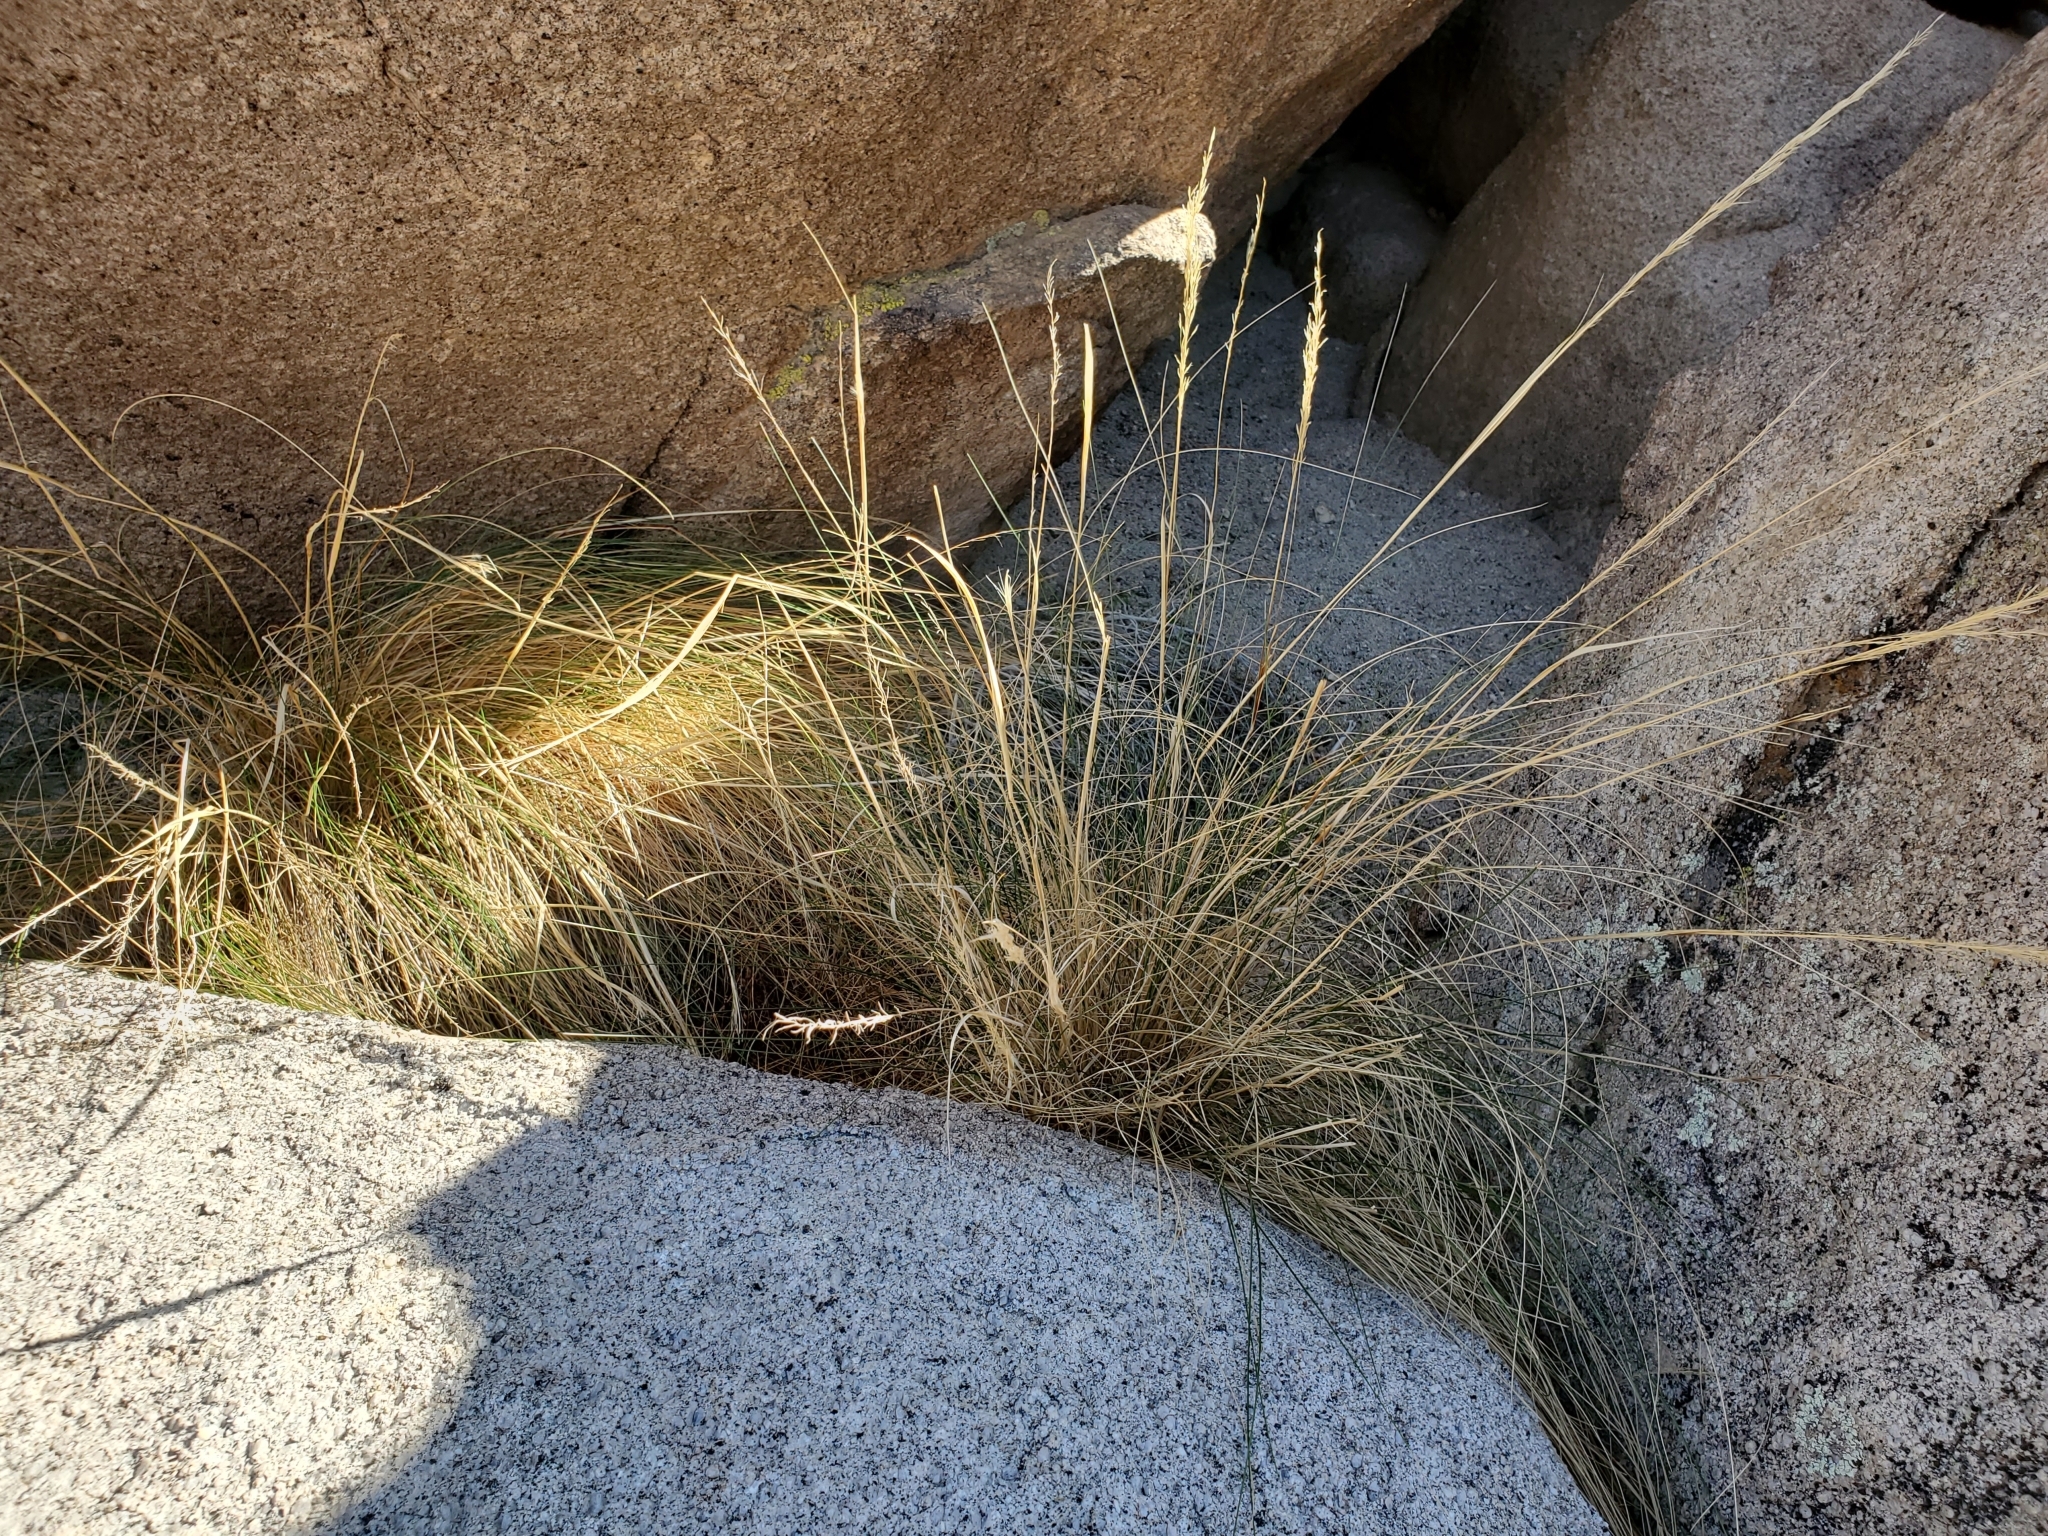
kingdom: Plantae
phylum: Tracheophyta
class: Liliopsida
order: Poales
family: Poaceae
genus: Pappostipa
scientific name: Pappostipa speciosa
